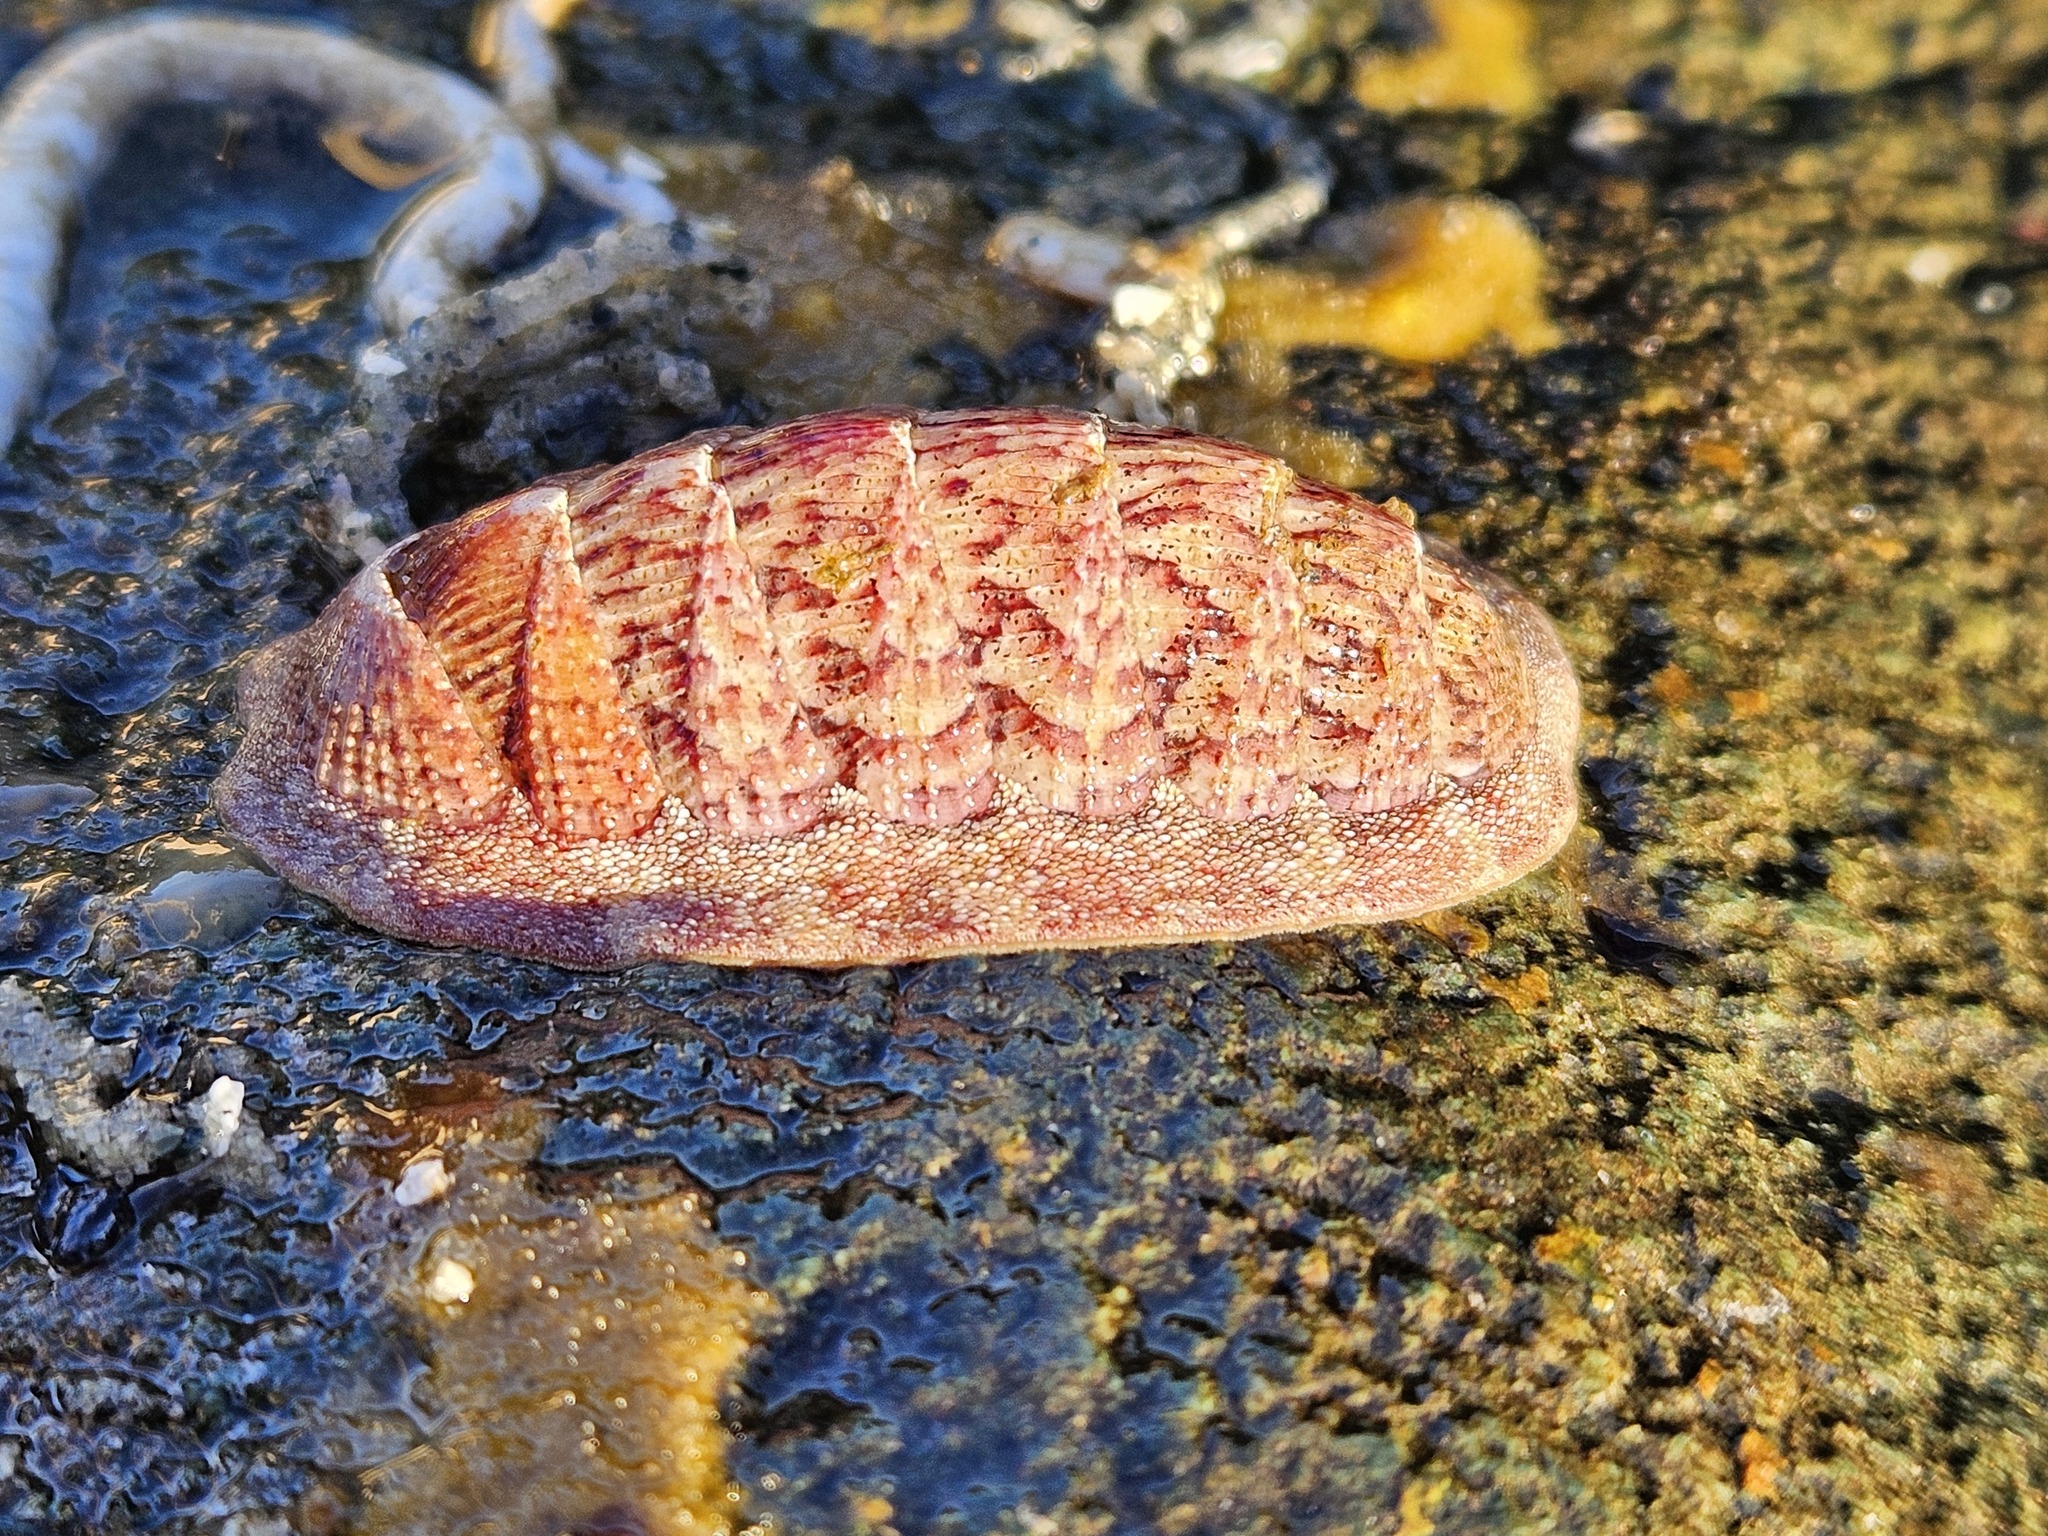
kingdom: Animalia
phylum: Mollusca
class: Polyplacophora
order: Chitonida
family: Ischnochitonidae
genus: Lepidozona
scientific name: Lepidozona mertensii
